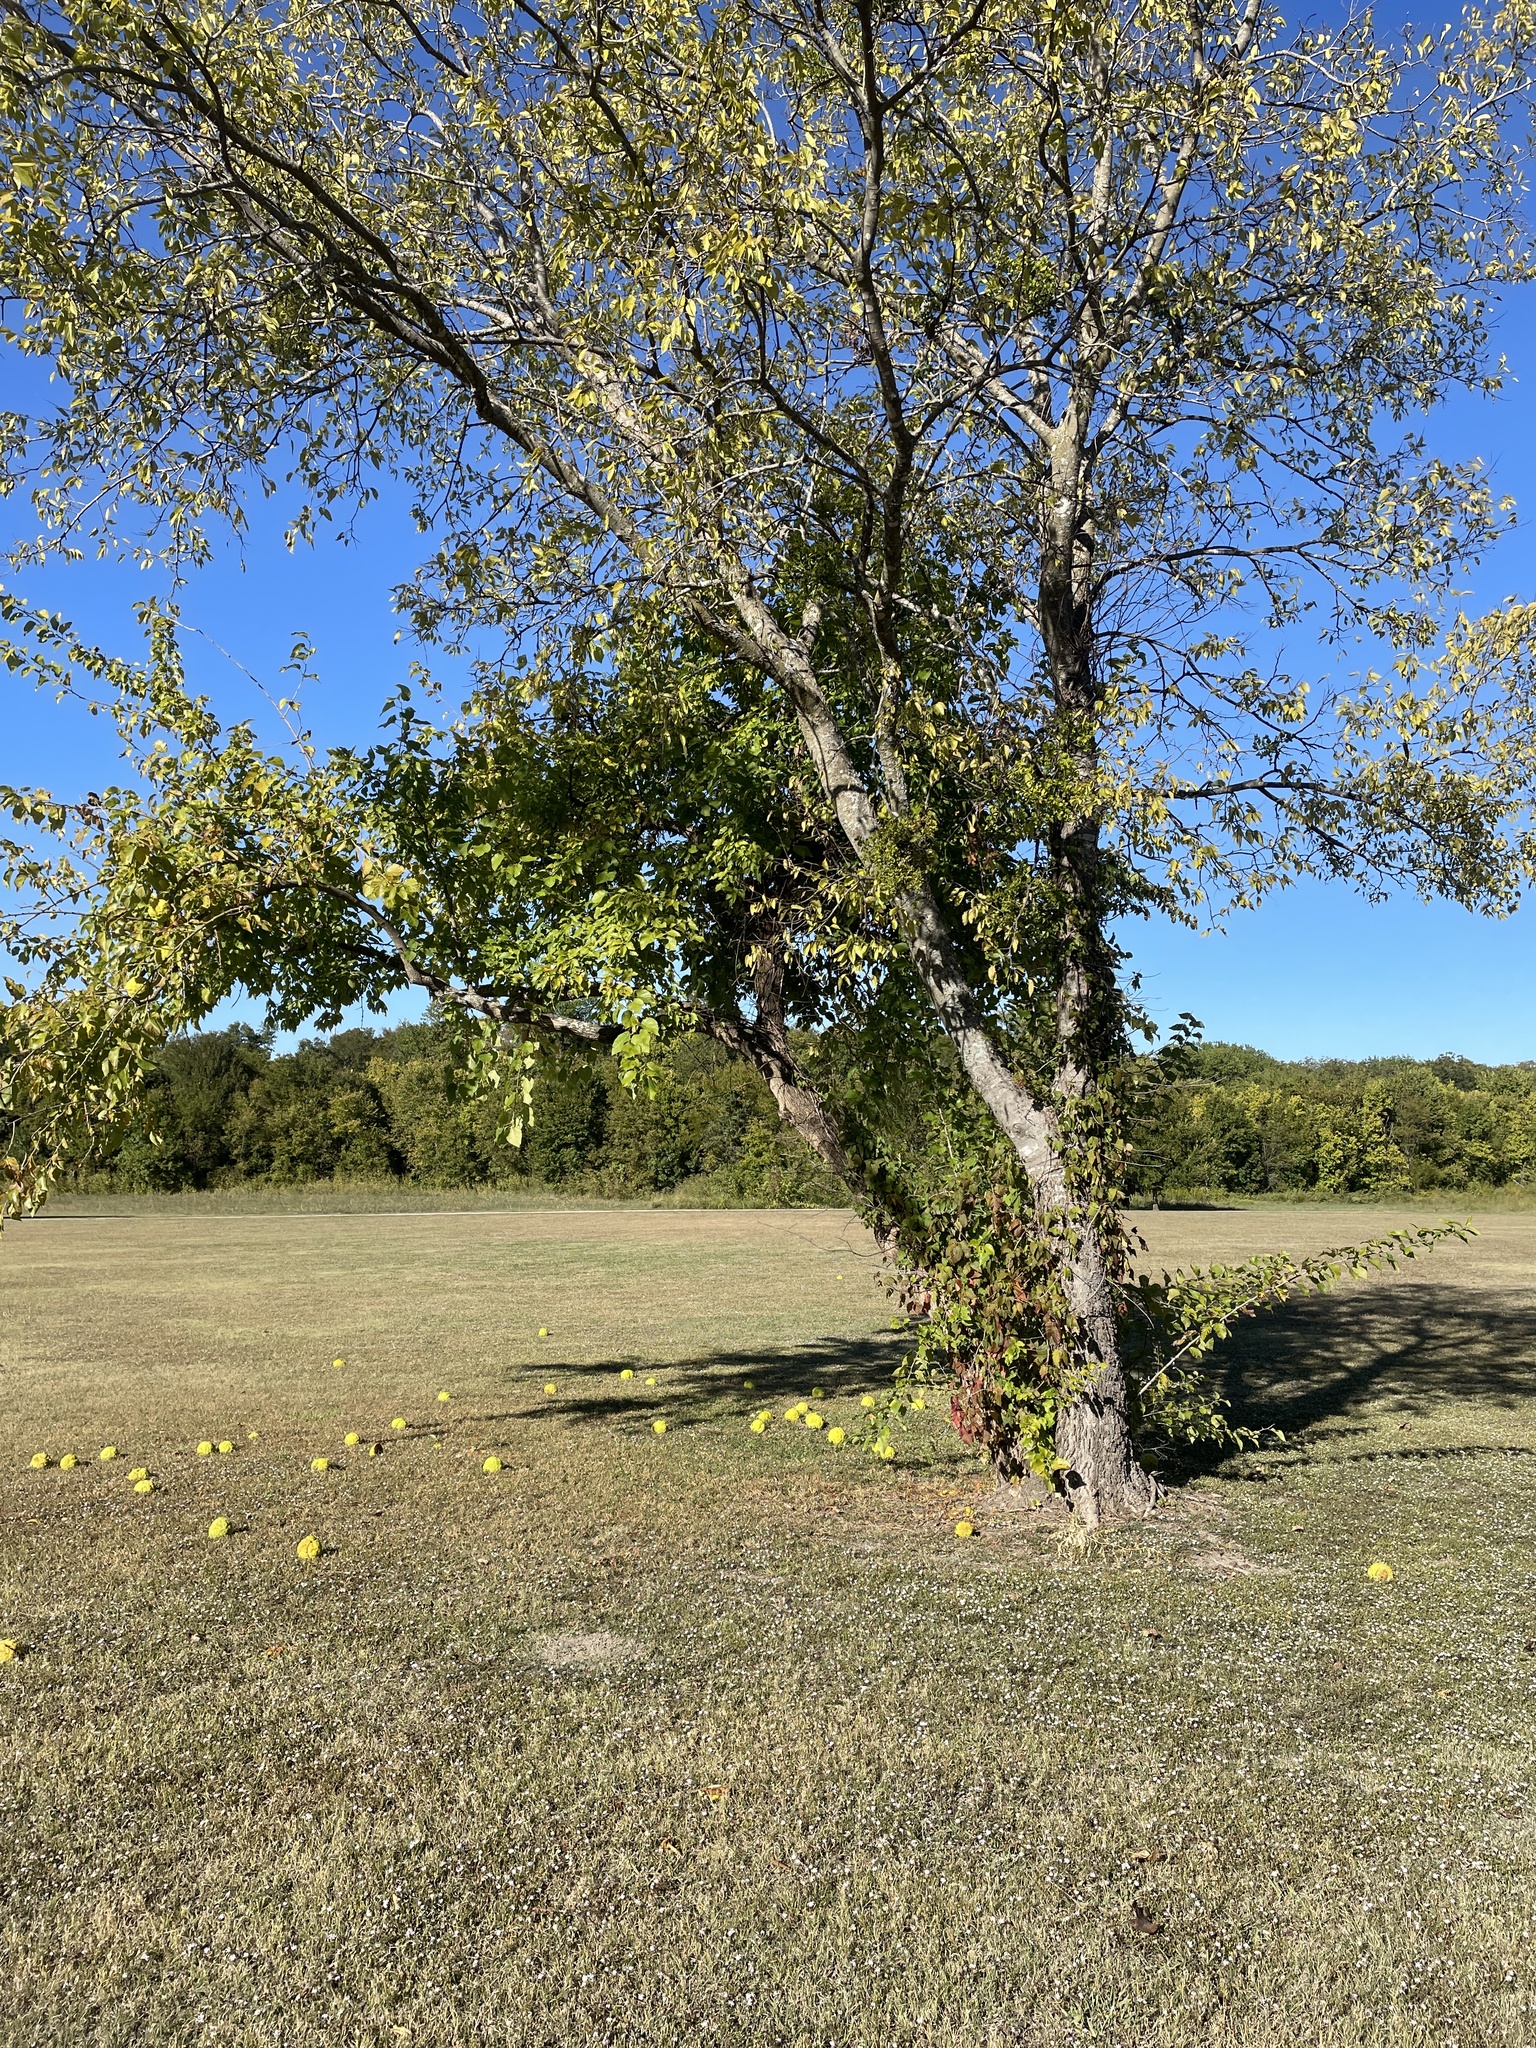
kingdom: Plantae
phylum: Tracheophyta
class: Magnoliopsida
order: Rosales
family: Moraceae
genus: Maclura
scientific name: Maclura pomifera
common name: Osage-orange
